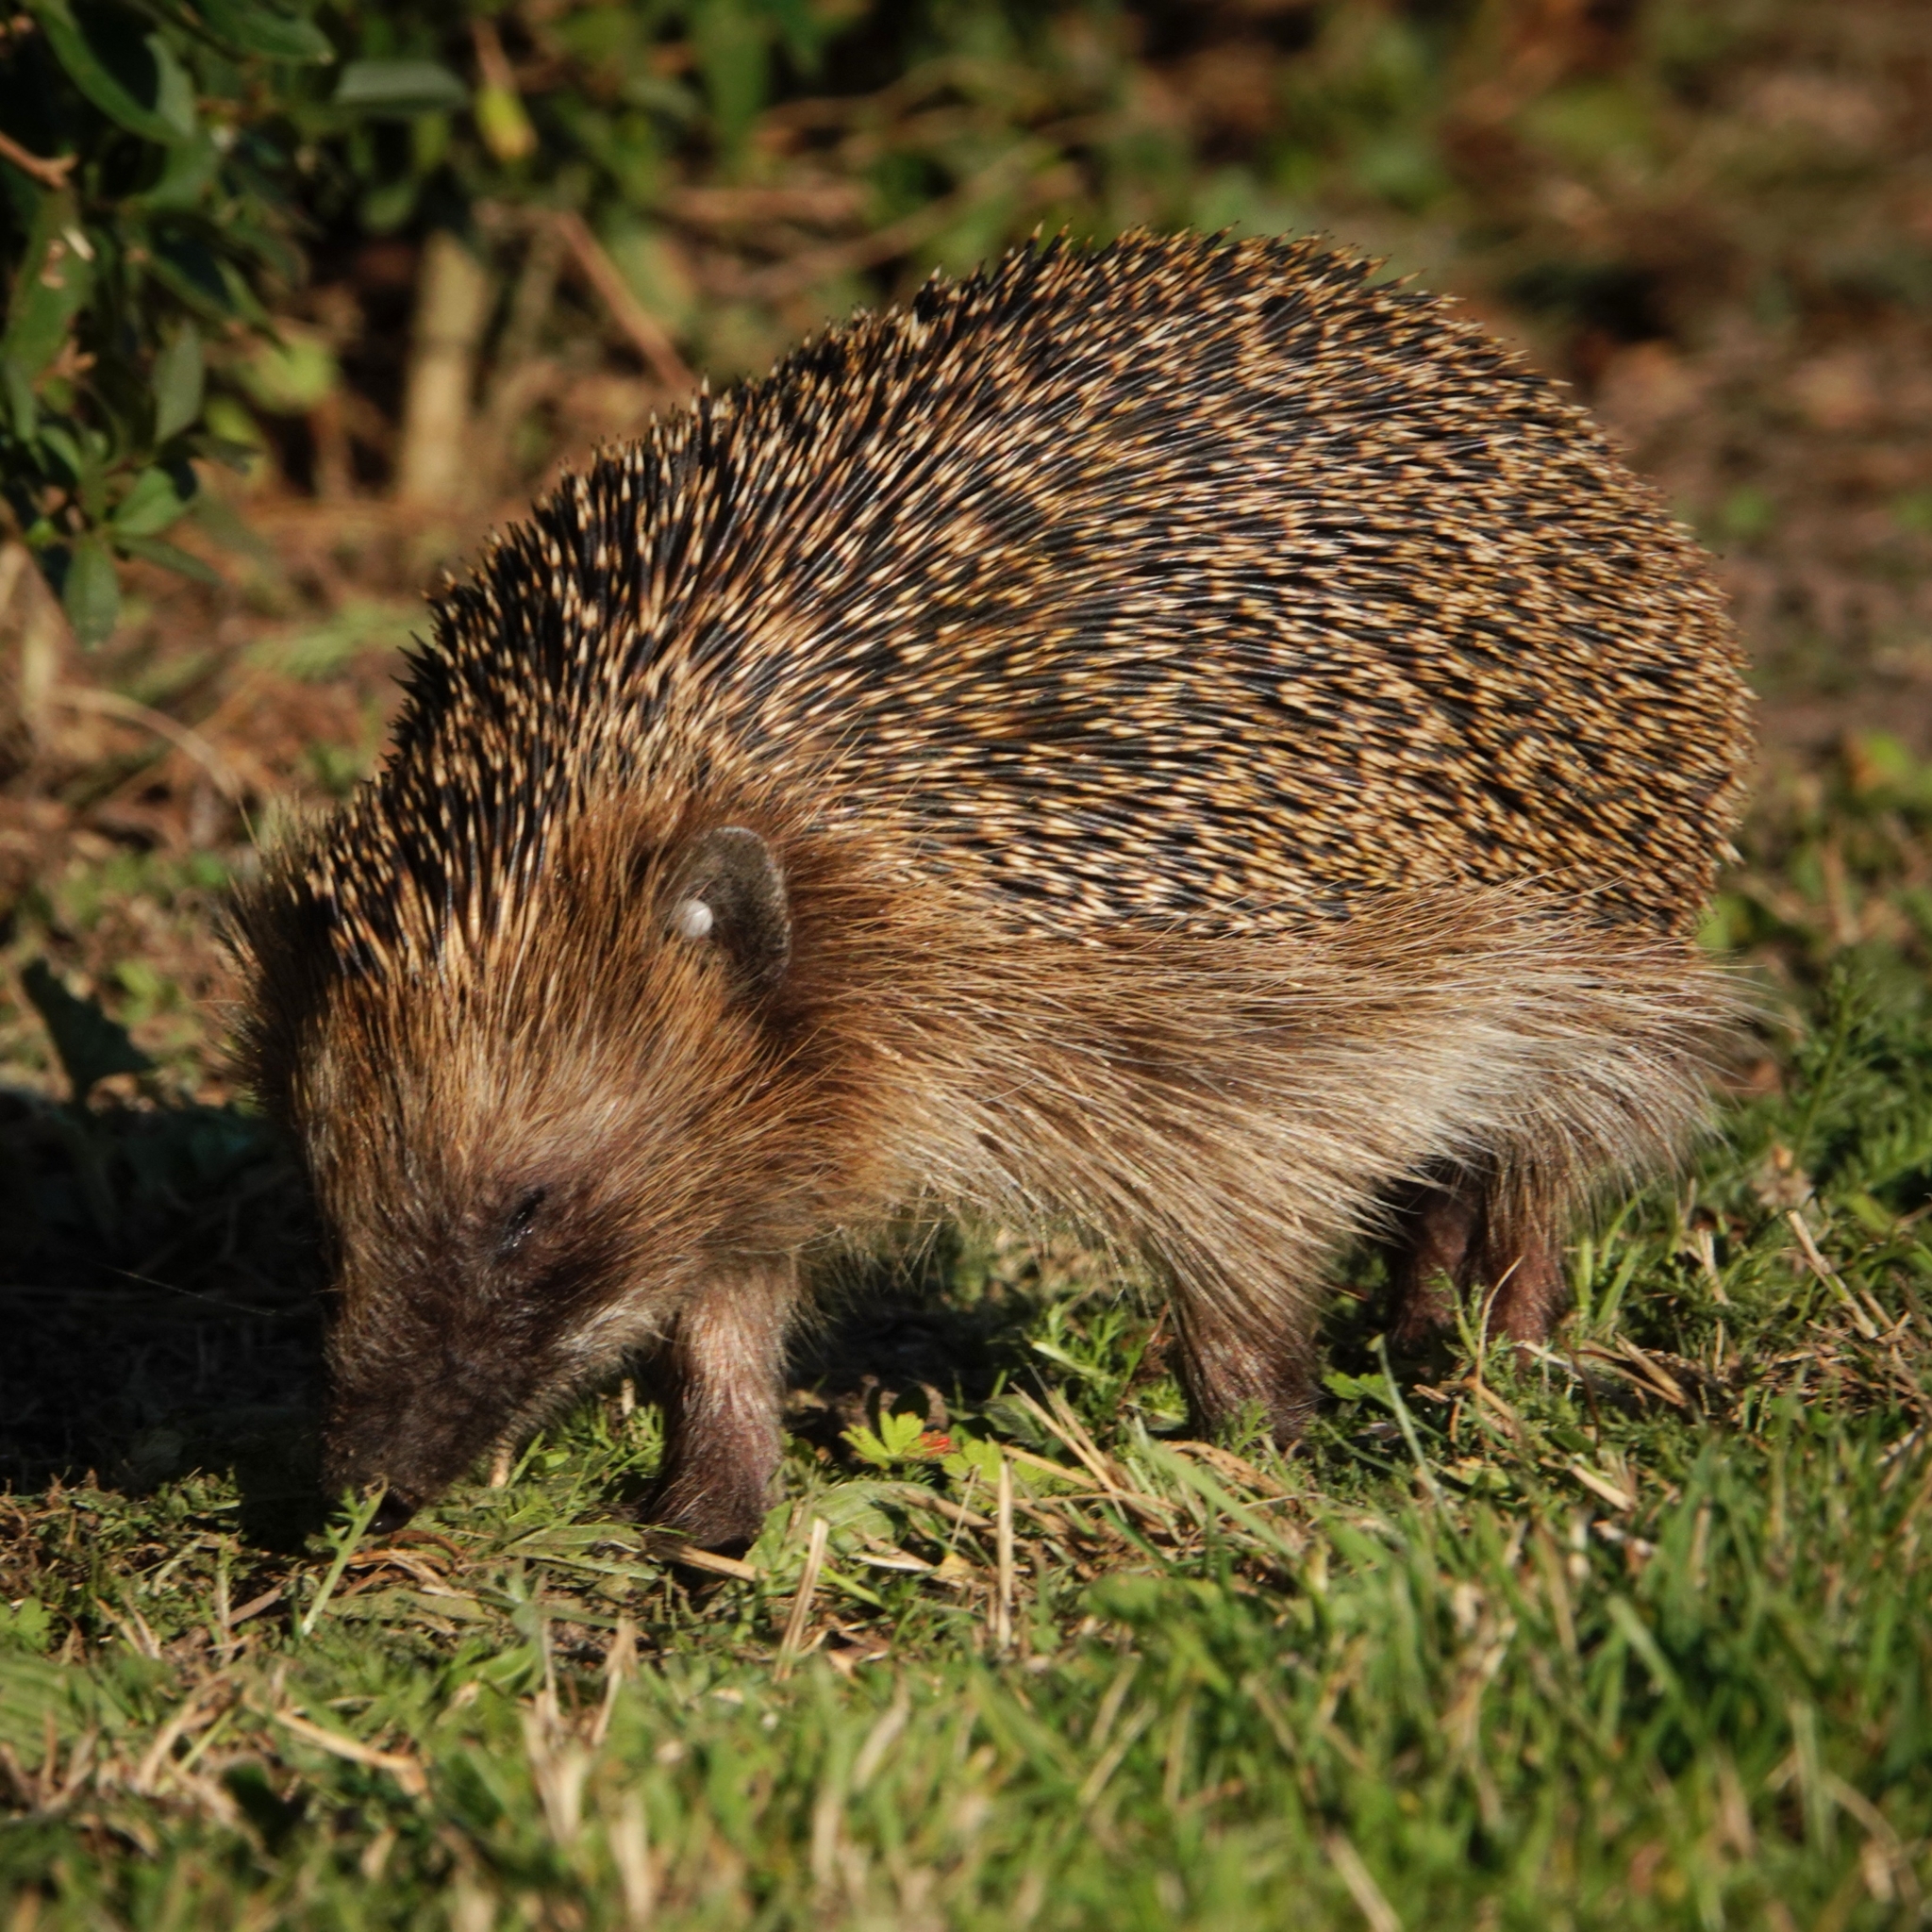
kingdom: Animalia
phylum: Chordata
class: Mammalia
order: Erinaceomorpha
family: Erinaceidae
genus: Erinaceus
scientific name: Erinaceus europaeus
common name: West european hedgehog
